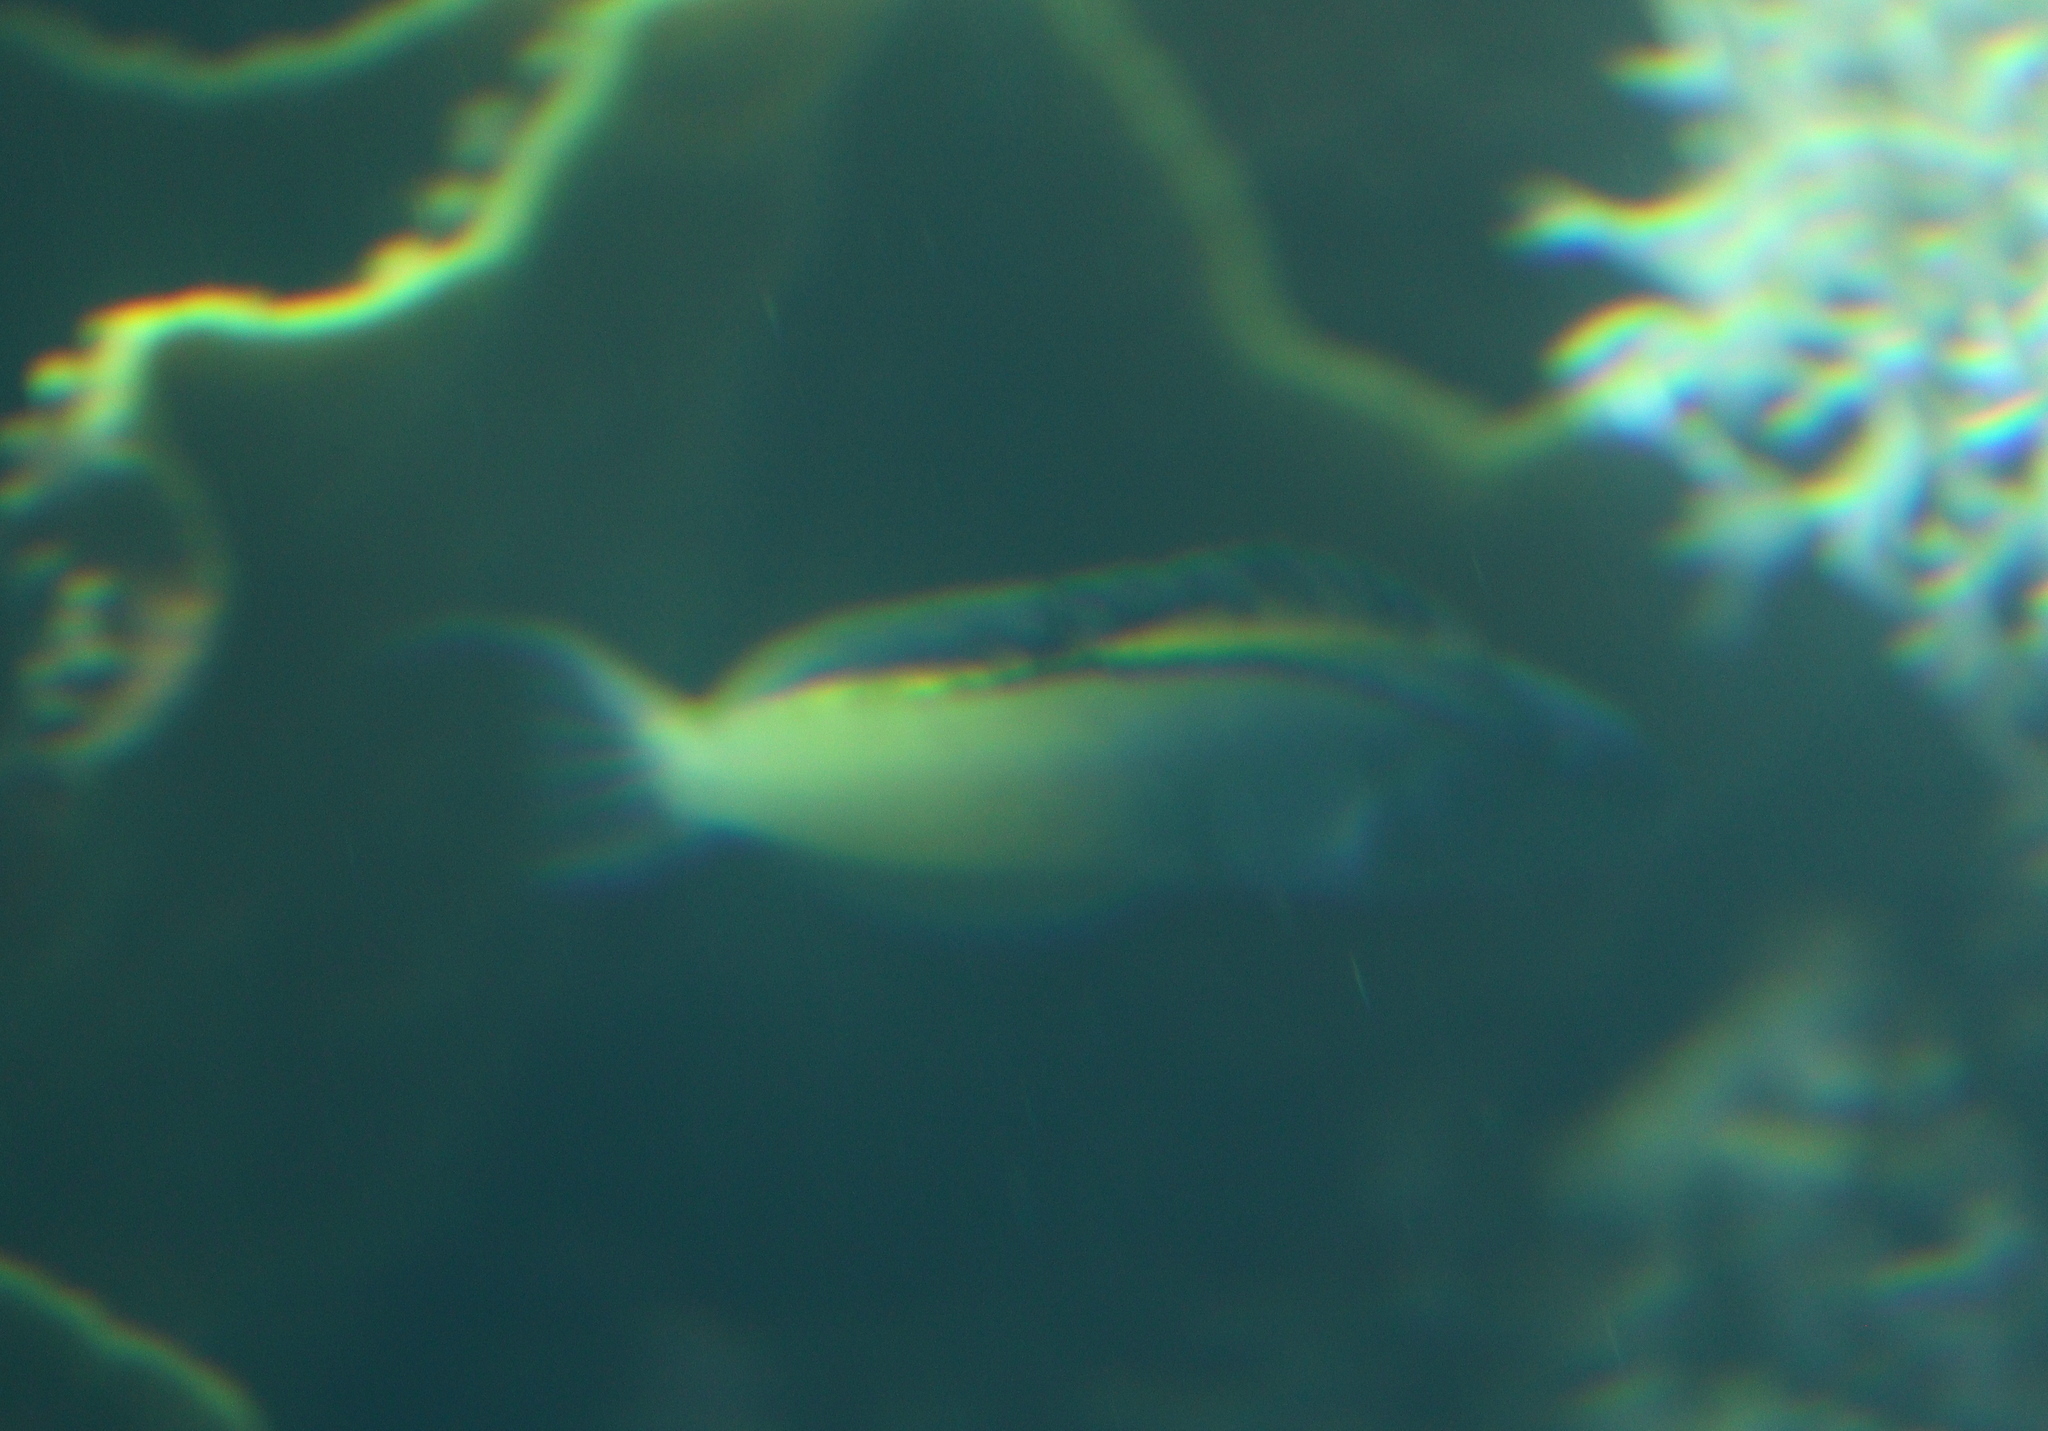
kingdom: Animalia
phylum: Chordata
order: Perciformes
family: Blenniidae
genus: Meiacanthus
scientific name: Meiacanthus nigrolineatus
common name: Blackline fangblenny
